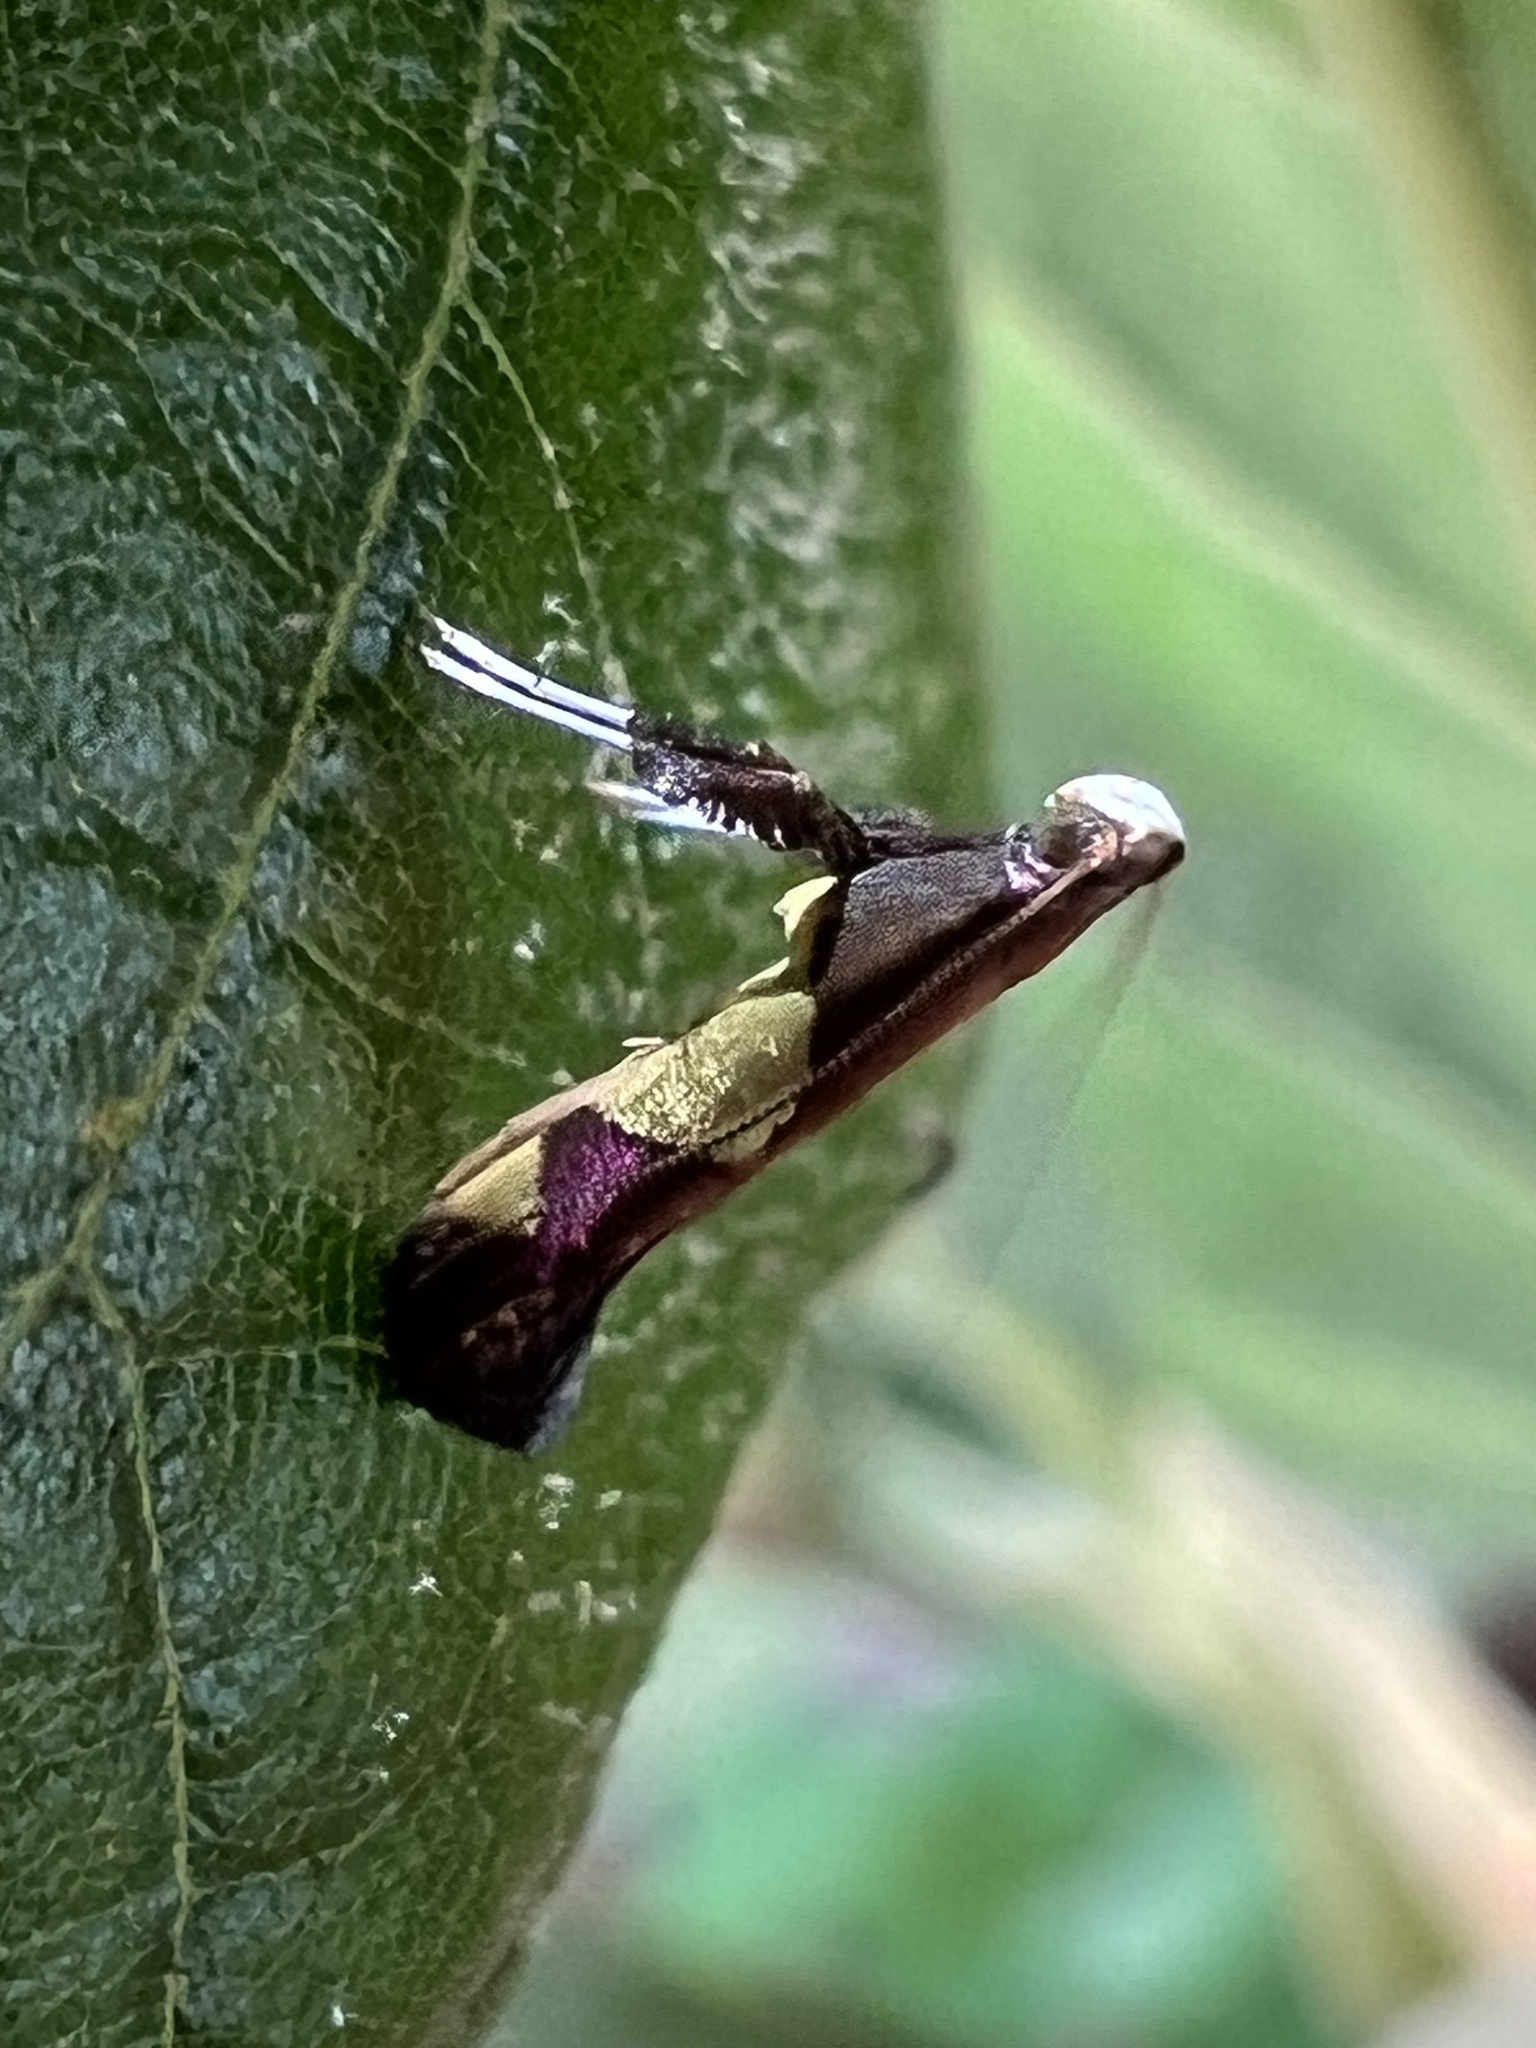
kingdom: Animalia
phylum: Arthropoda
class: Insecta
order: Lepidoptera
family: Gracillariidae
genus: Caloptilia
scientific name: Caloptilia bimaculatella
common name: Maple caloptilia moth
